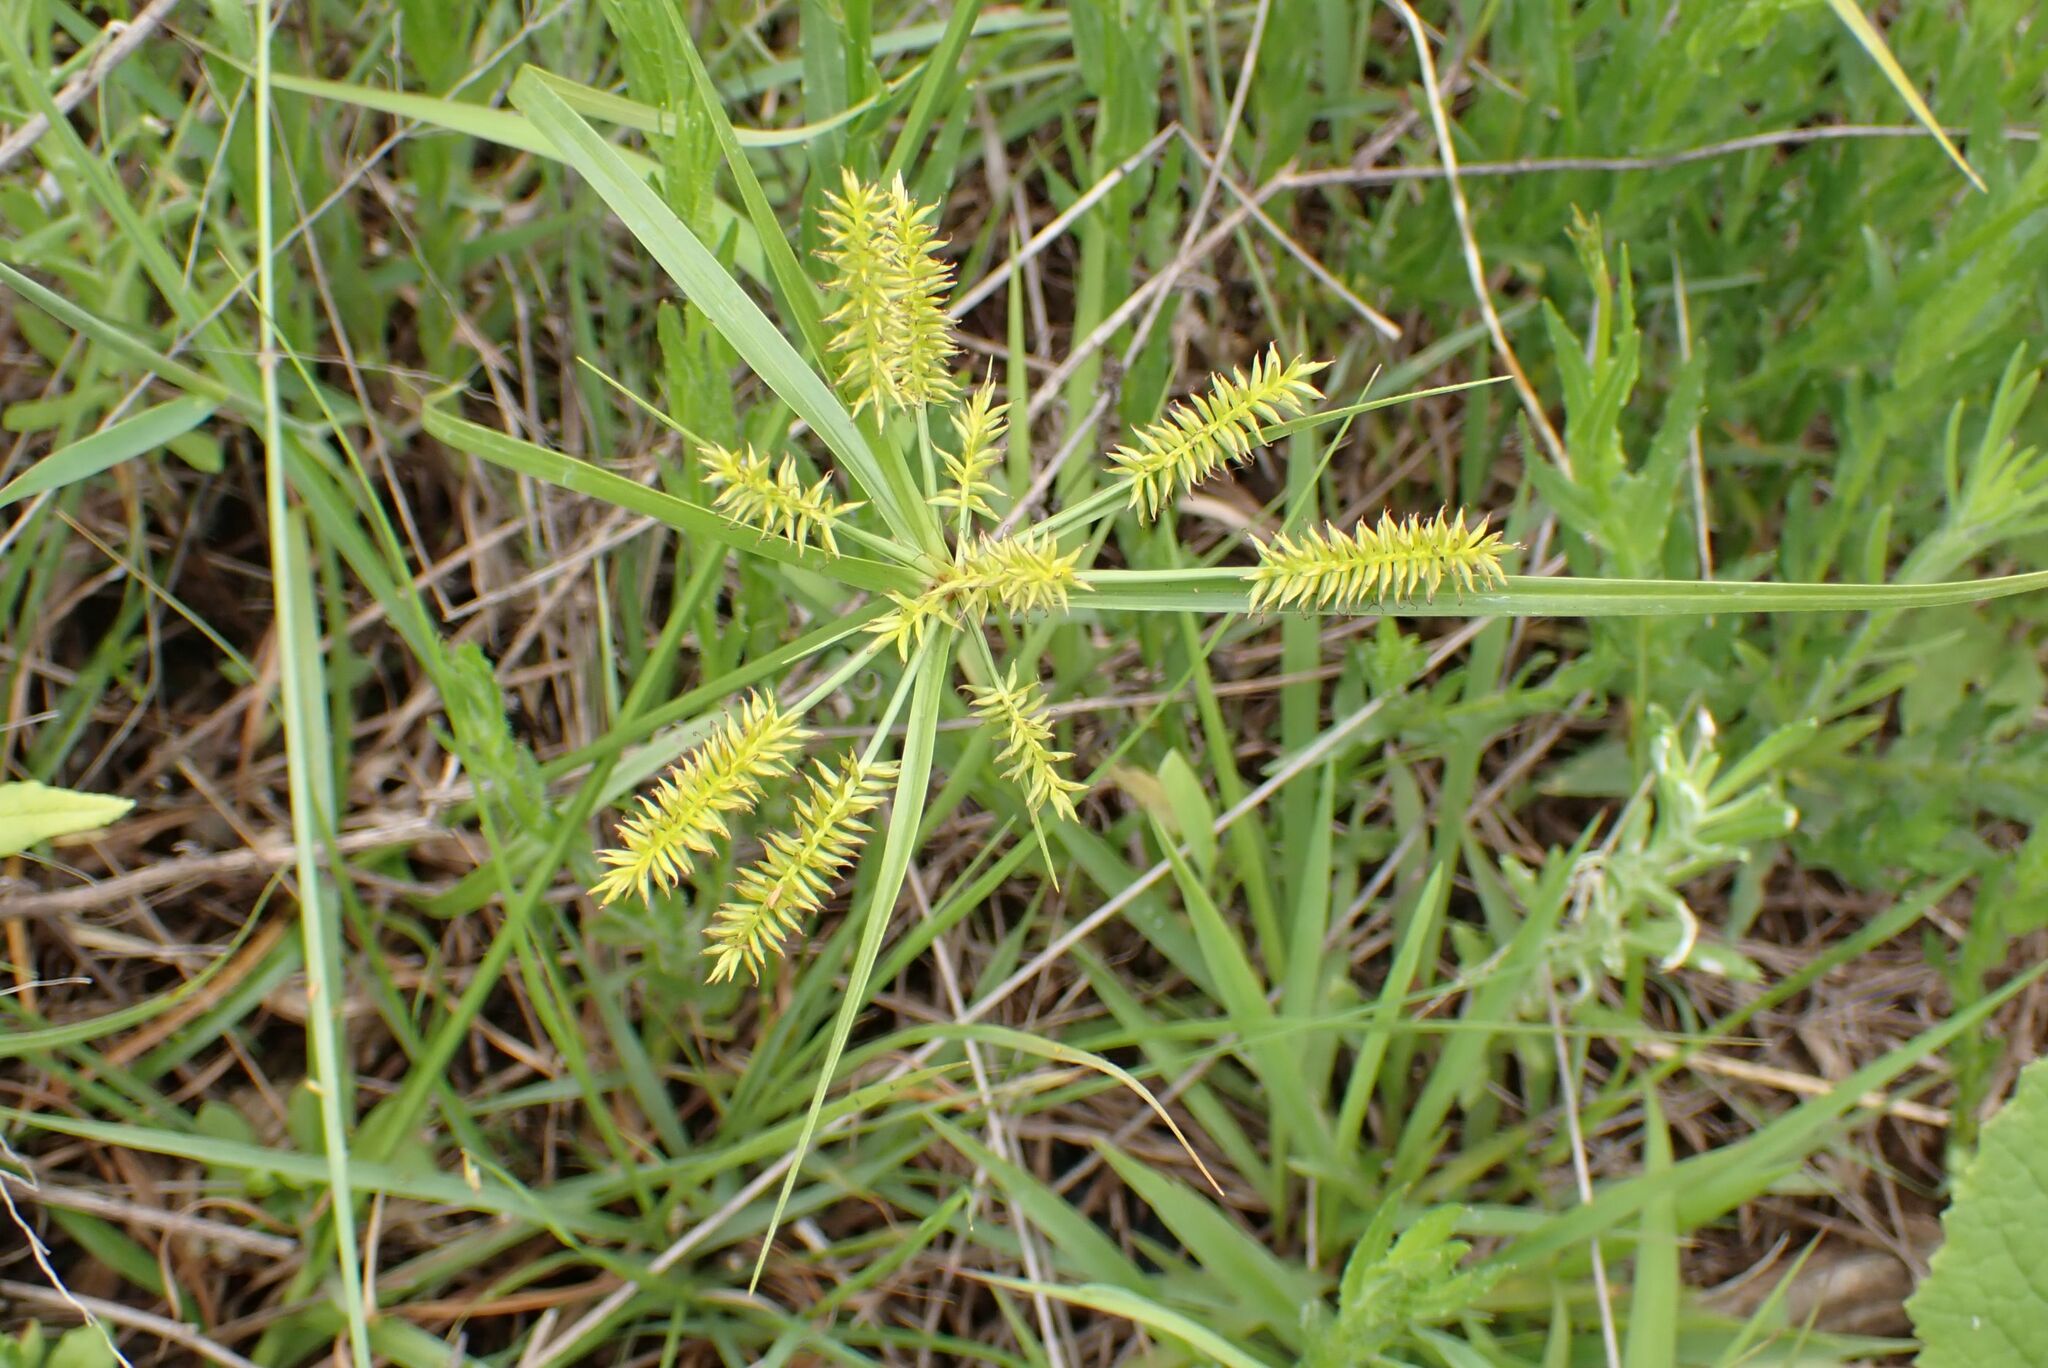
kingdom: Plantae
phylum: Tracheophyta
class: Liliopsida
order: Poales
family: Cyperaceae
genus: Cyperus
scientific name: Cyperus cyperoides
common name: Pacific island flat sedge
